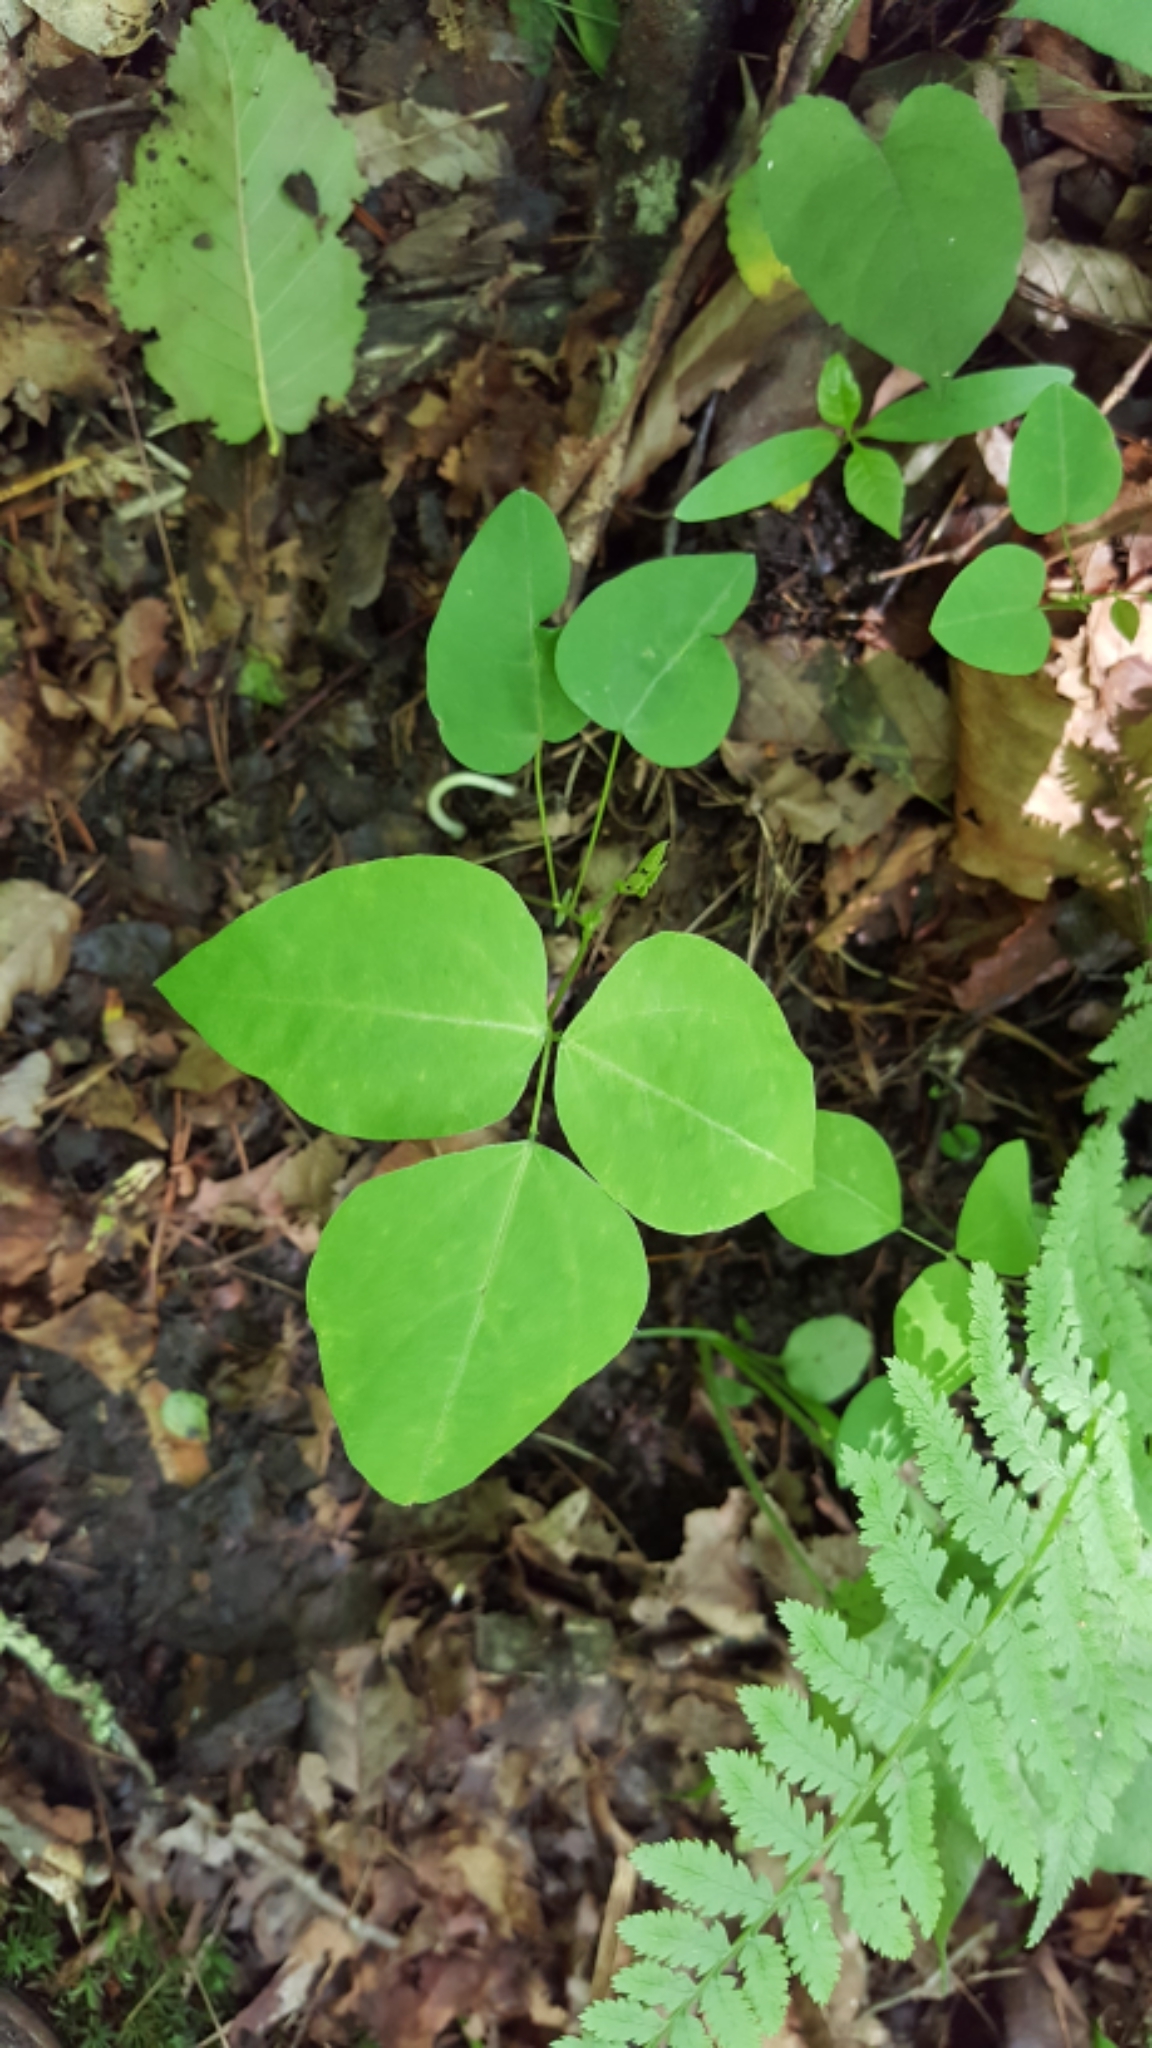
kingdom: Plantae
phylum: Tracheophyta
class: Magnoliopsida
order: Fabales
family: Fabaceae
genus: Amphicarpaea
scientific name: Amphicarpaea bracteata
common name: American hog peanut
